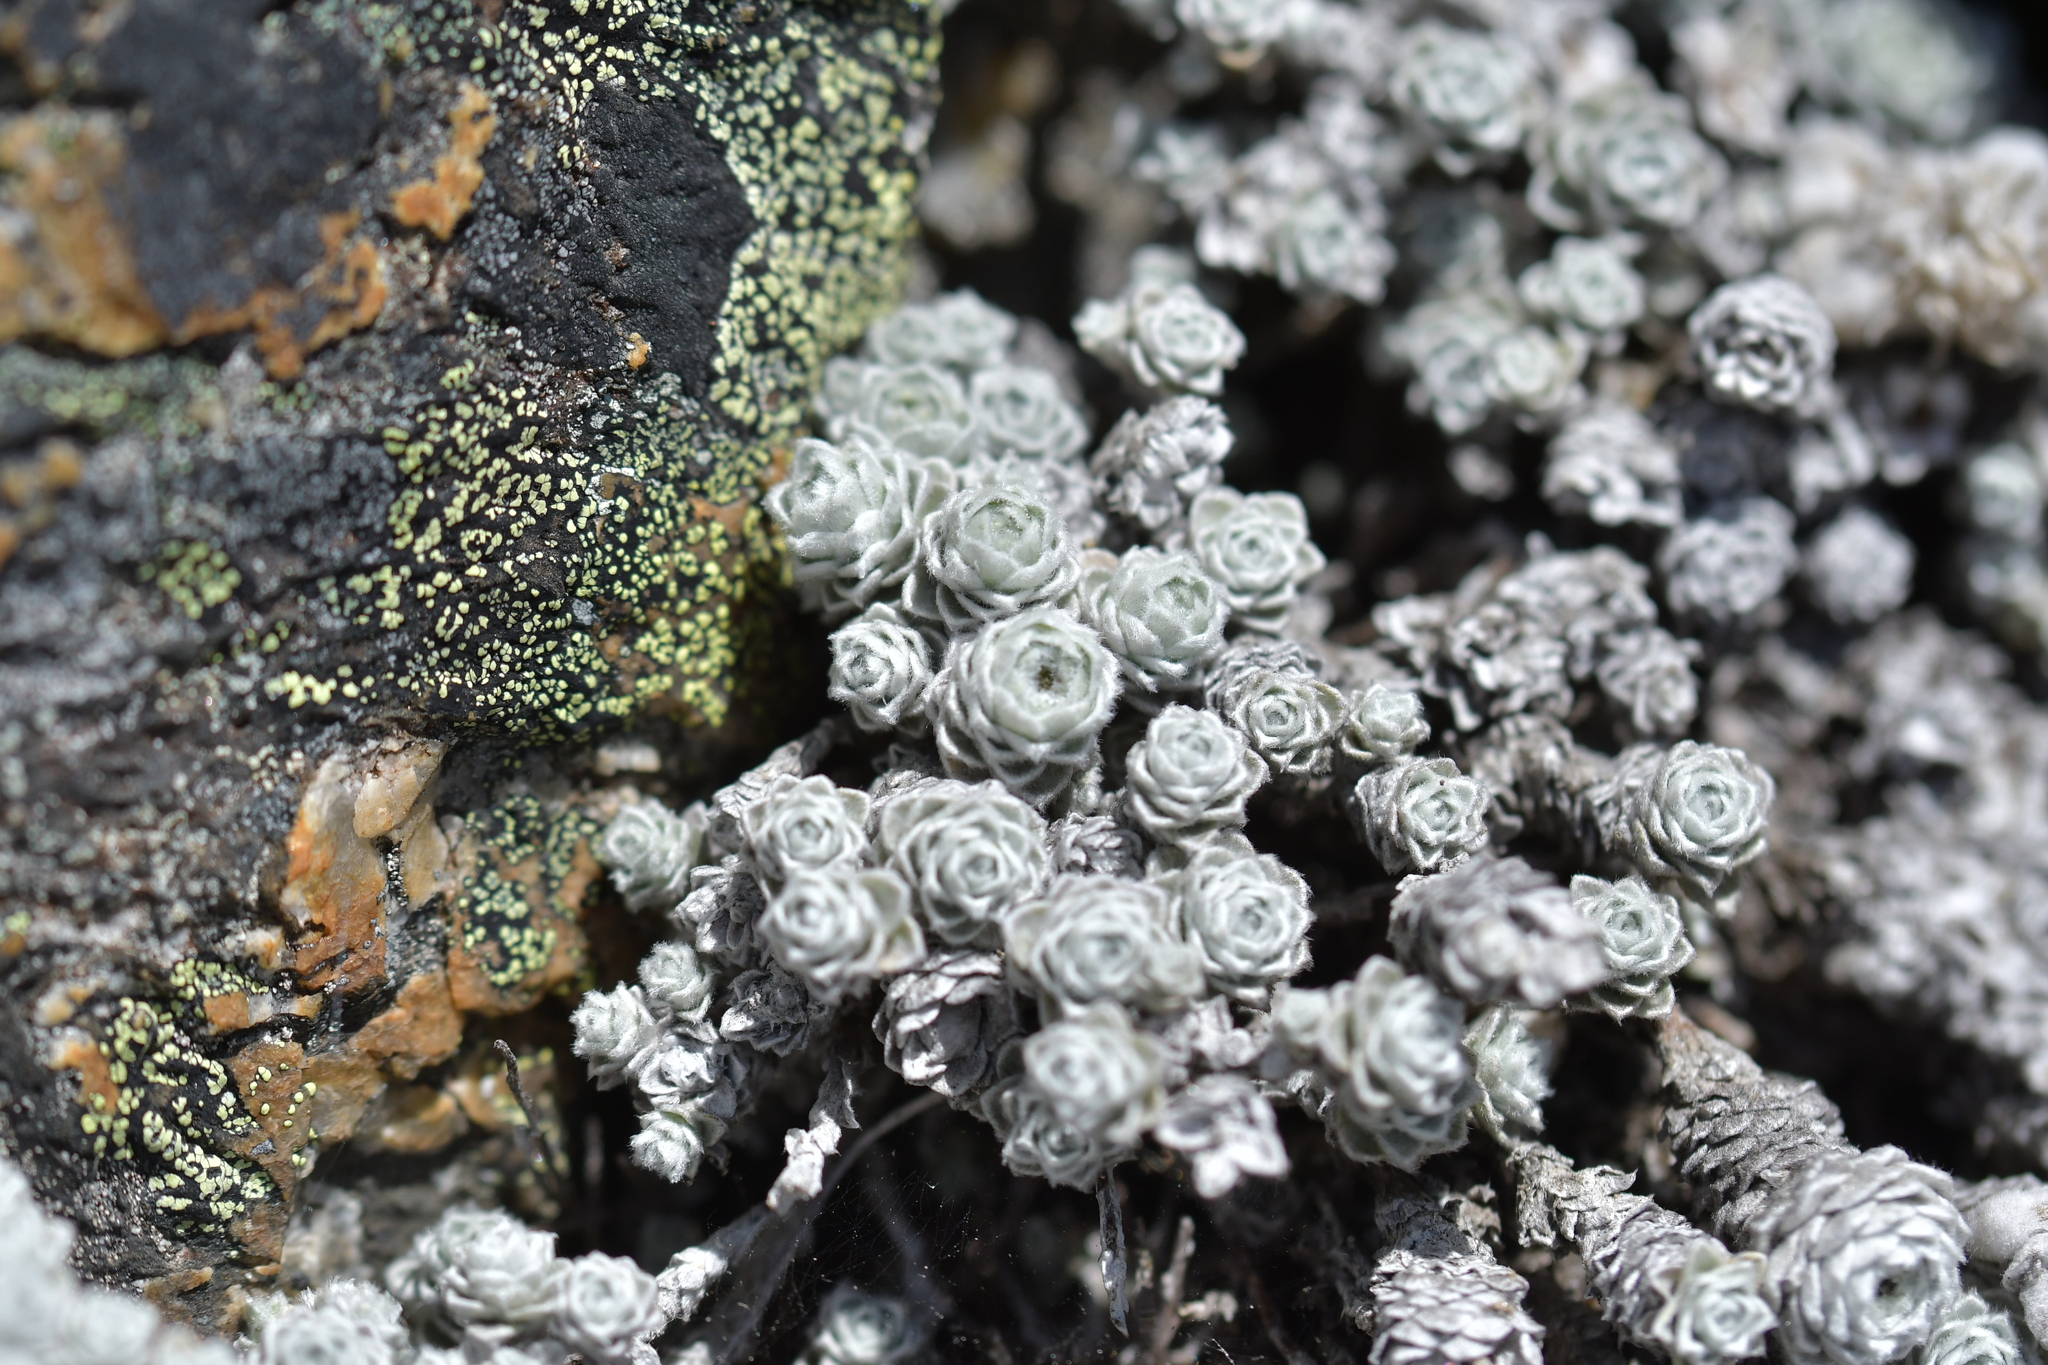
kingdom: Plantae
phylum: Tracheophyta
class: Magnoliopsida
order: Asterales
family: Asteraceae
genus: Leucogenes
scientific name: Leucogenes grandiceps
